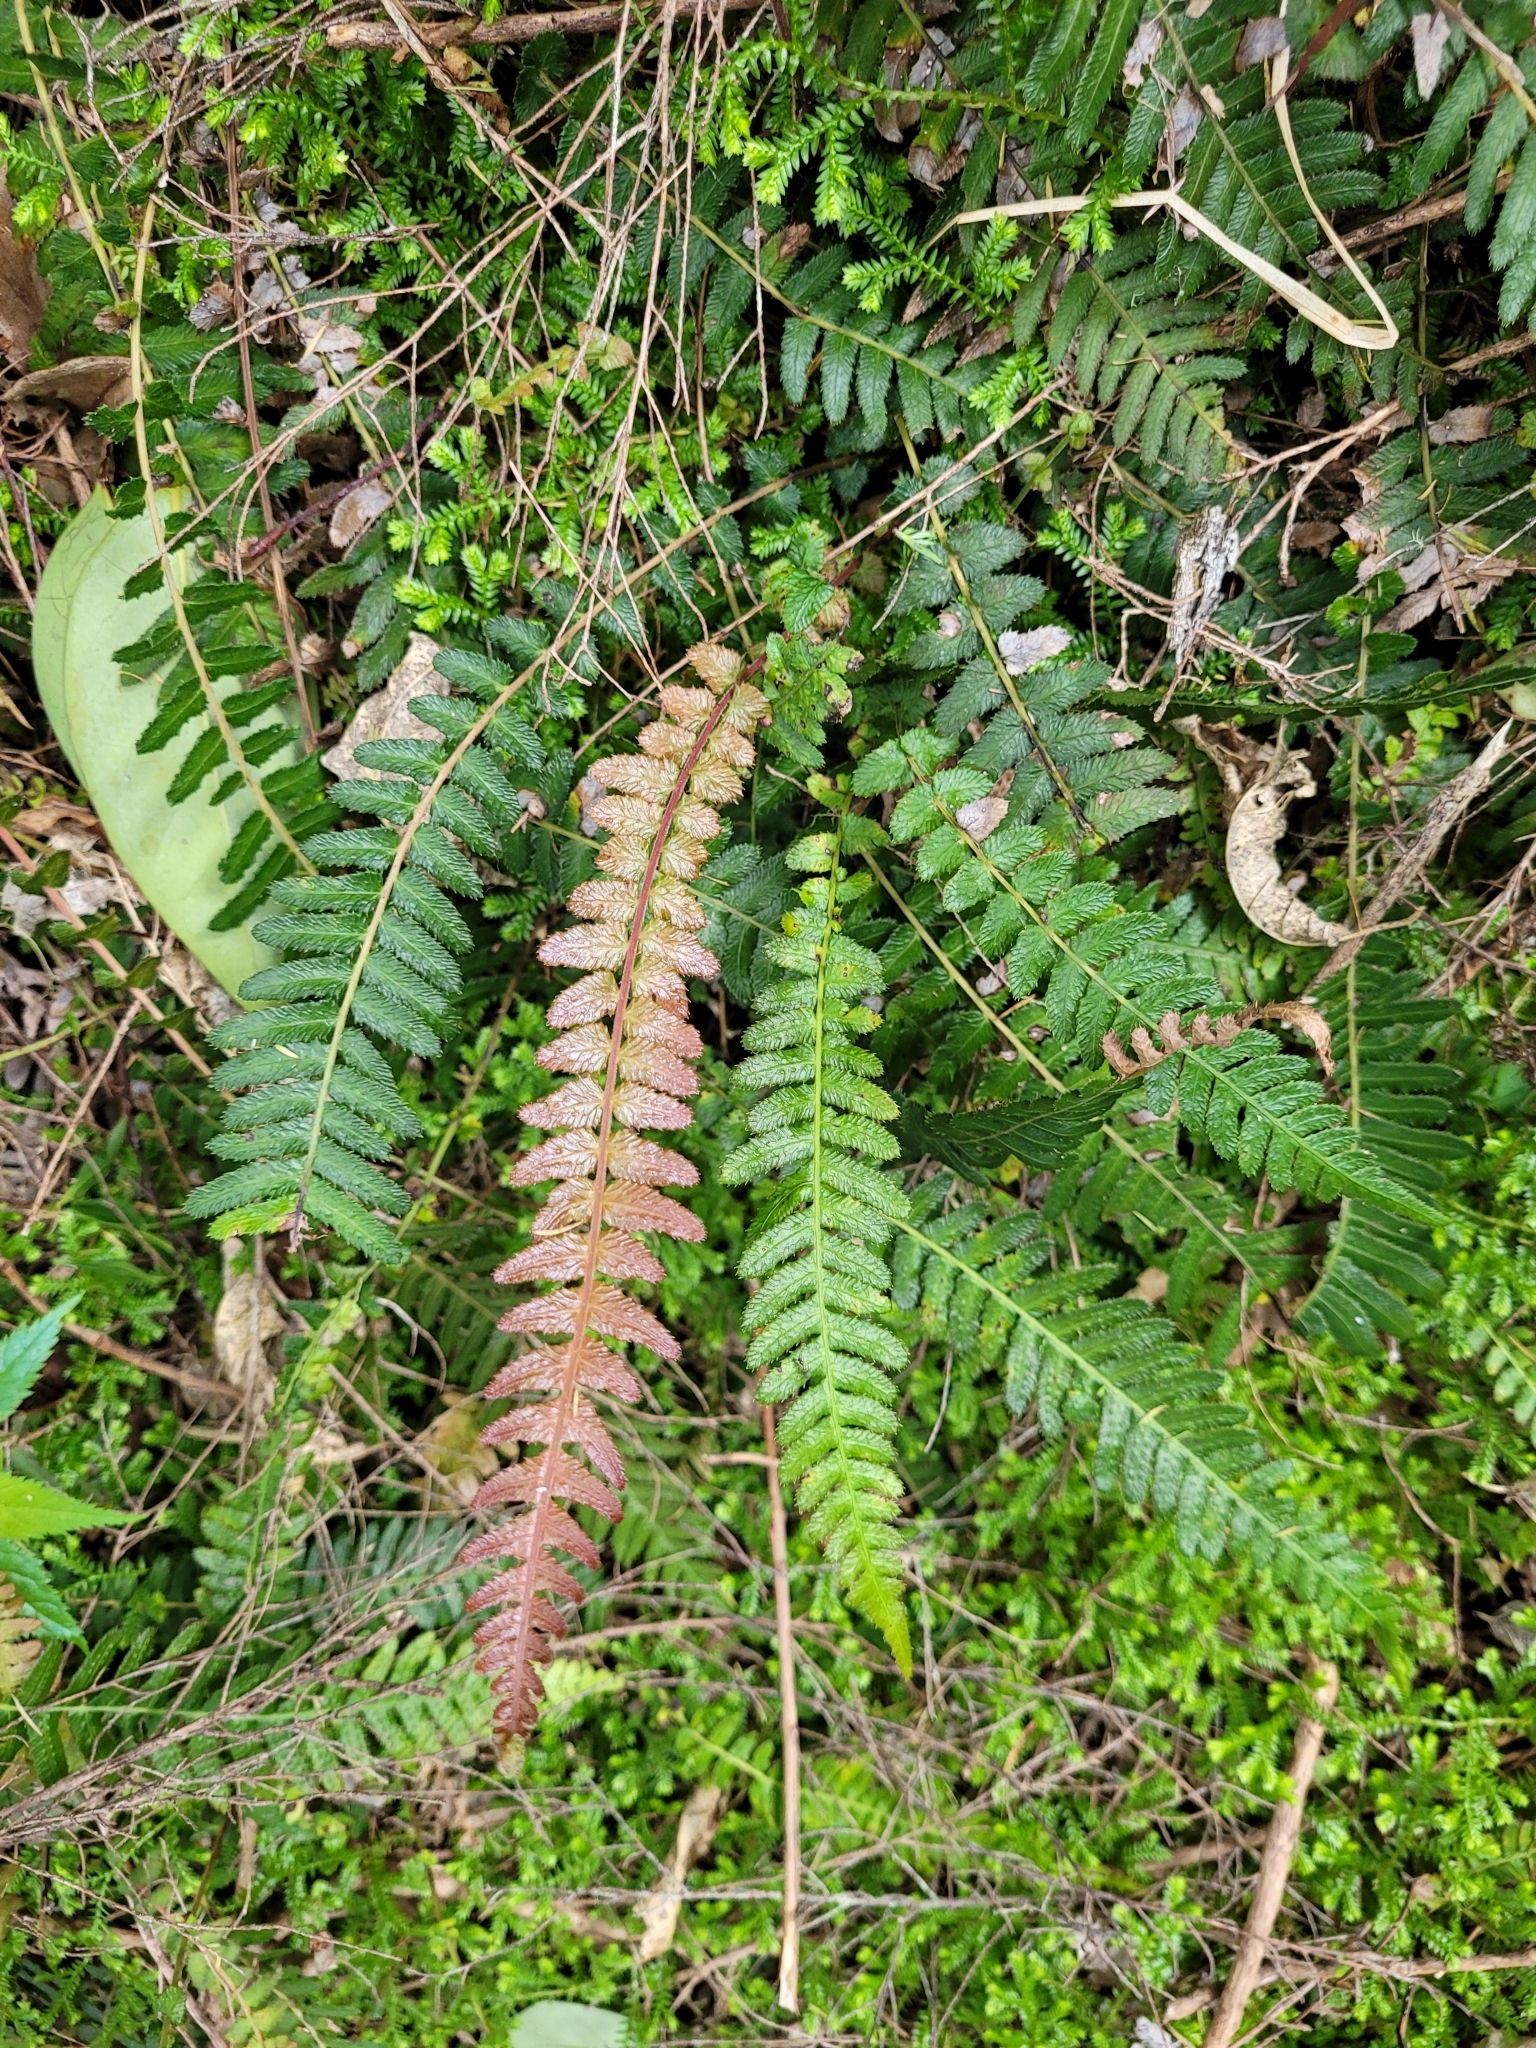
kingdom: Plantae
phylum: Tracheophyta
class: Polypodiopsida
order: Polypodiales
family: Blechnaceae
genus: Doodia
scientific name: Doodia australis
